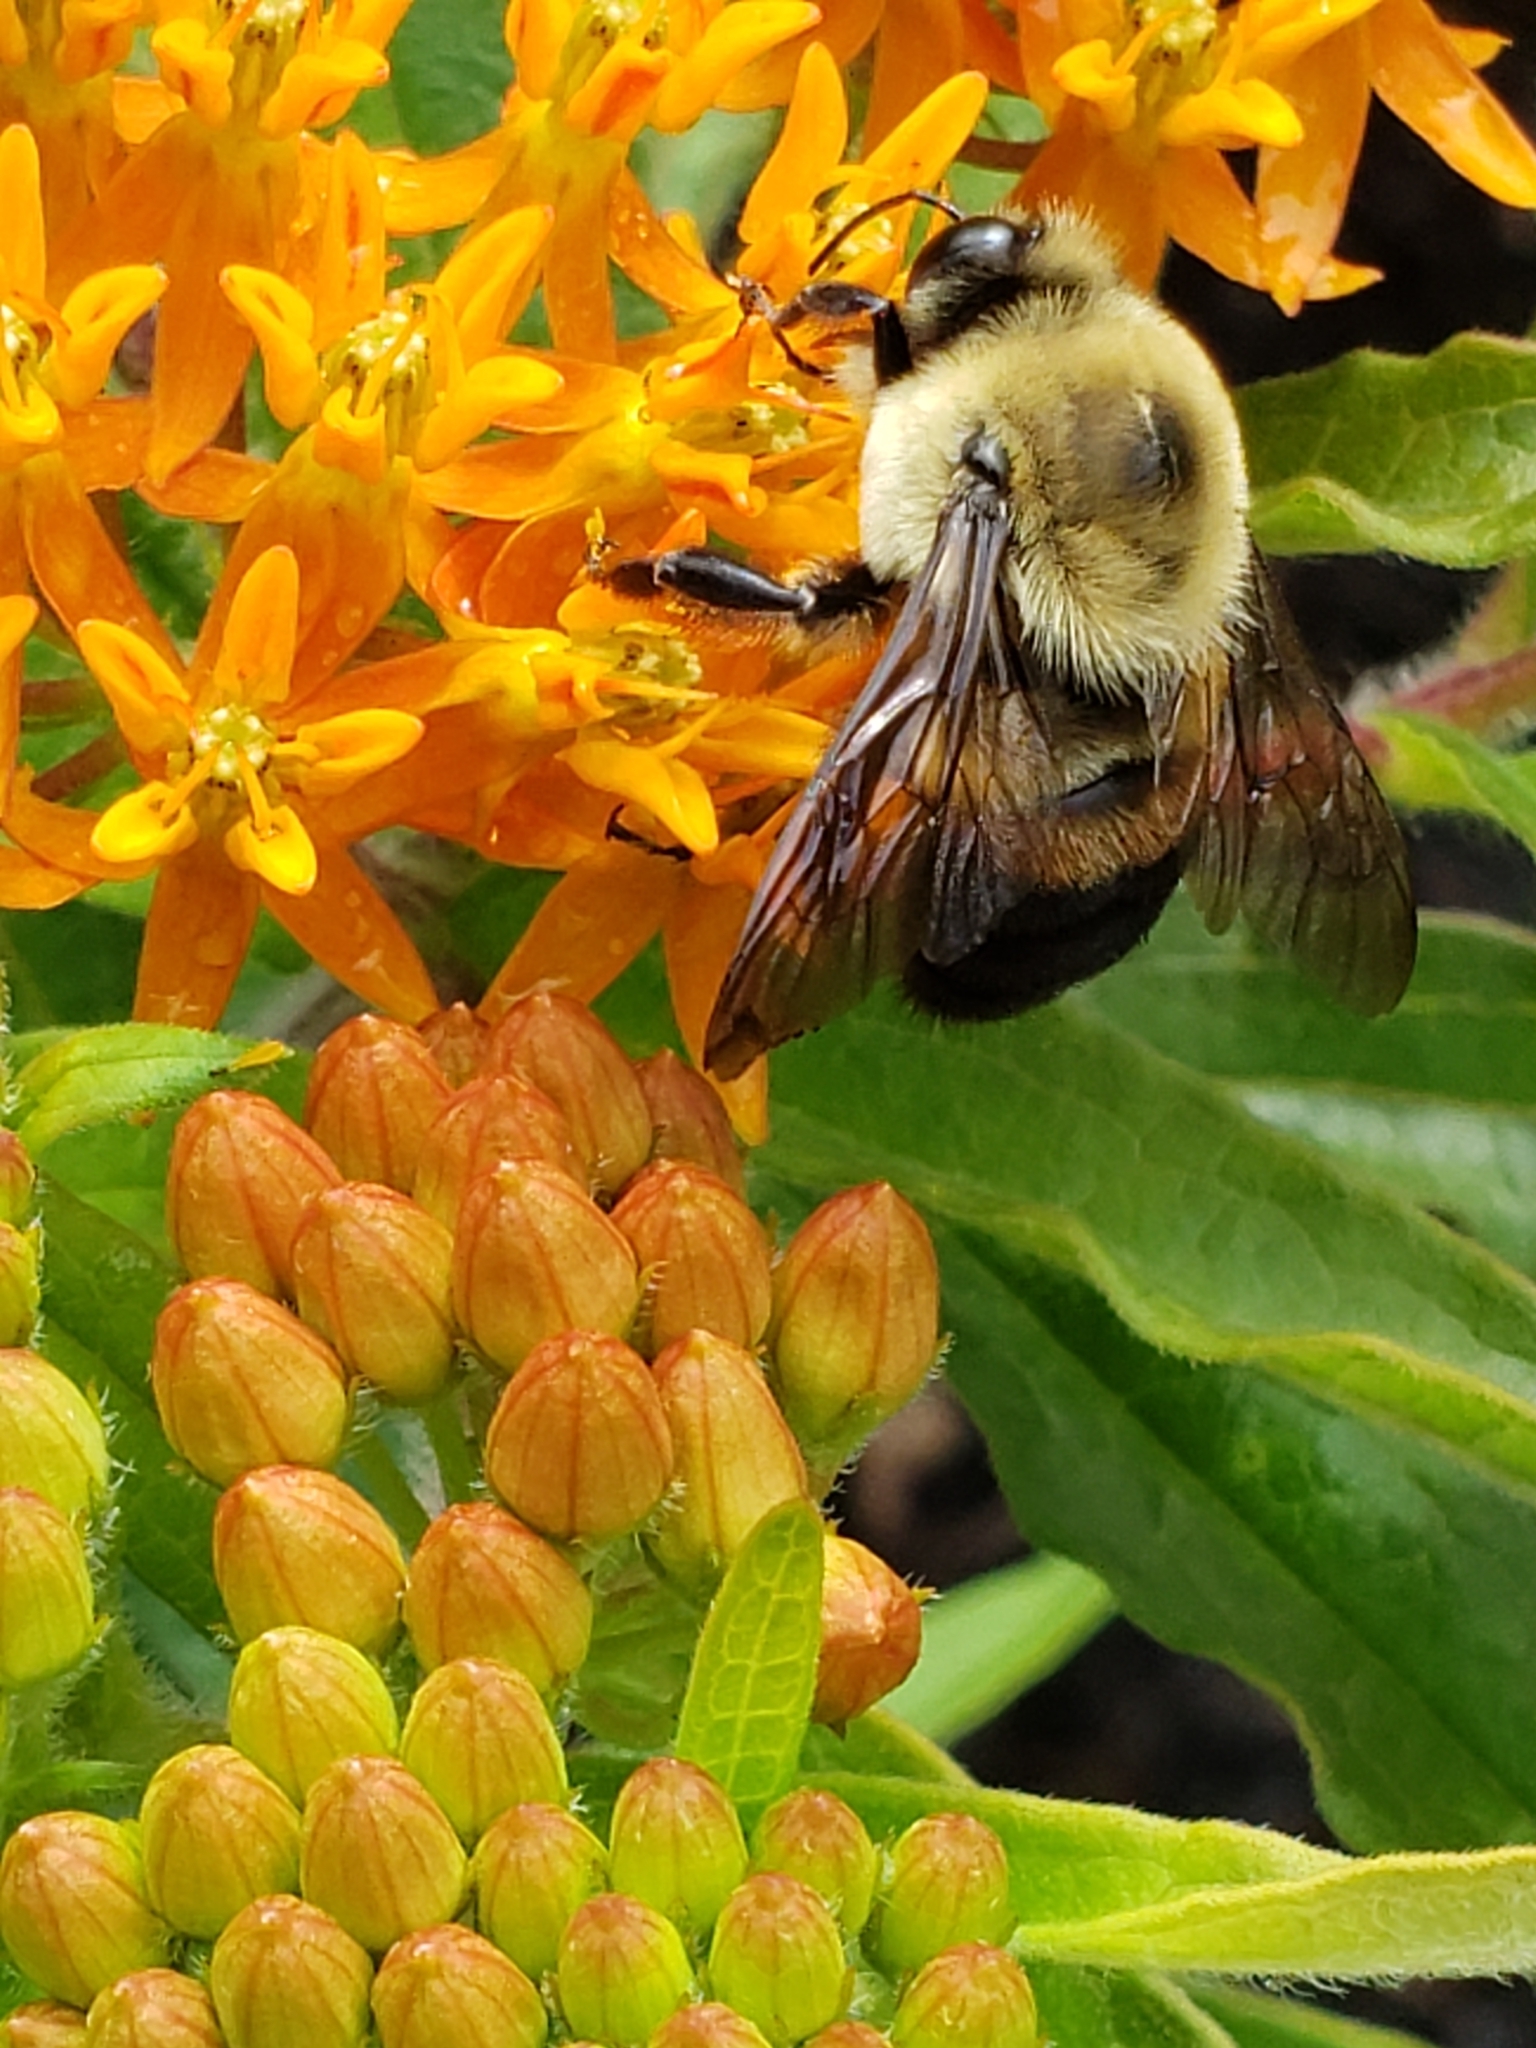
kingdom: Animalia
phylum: Arthropoda
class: Insecta
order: Hymenoptera
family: Apidae
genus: Bombus
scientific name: Bombus griseocollis
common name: Brown-belted bumble bee
